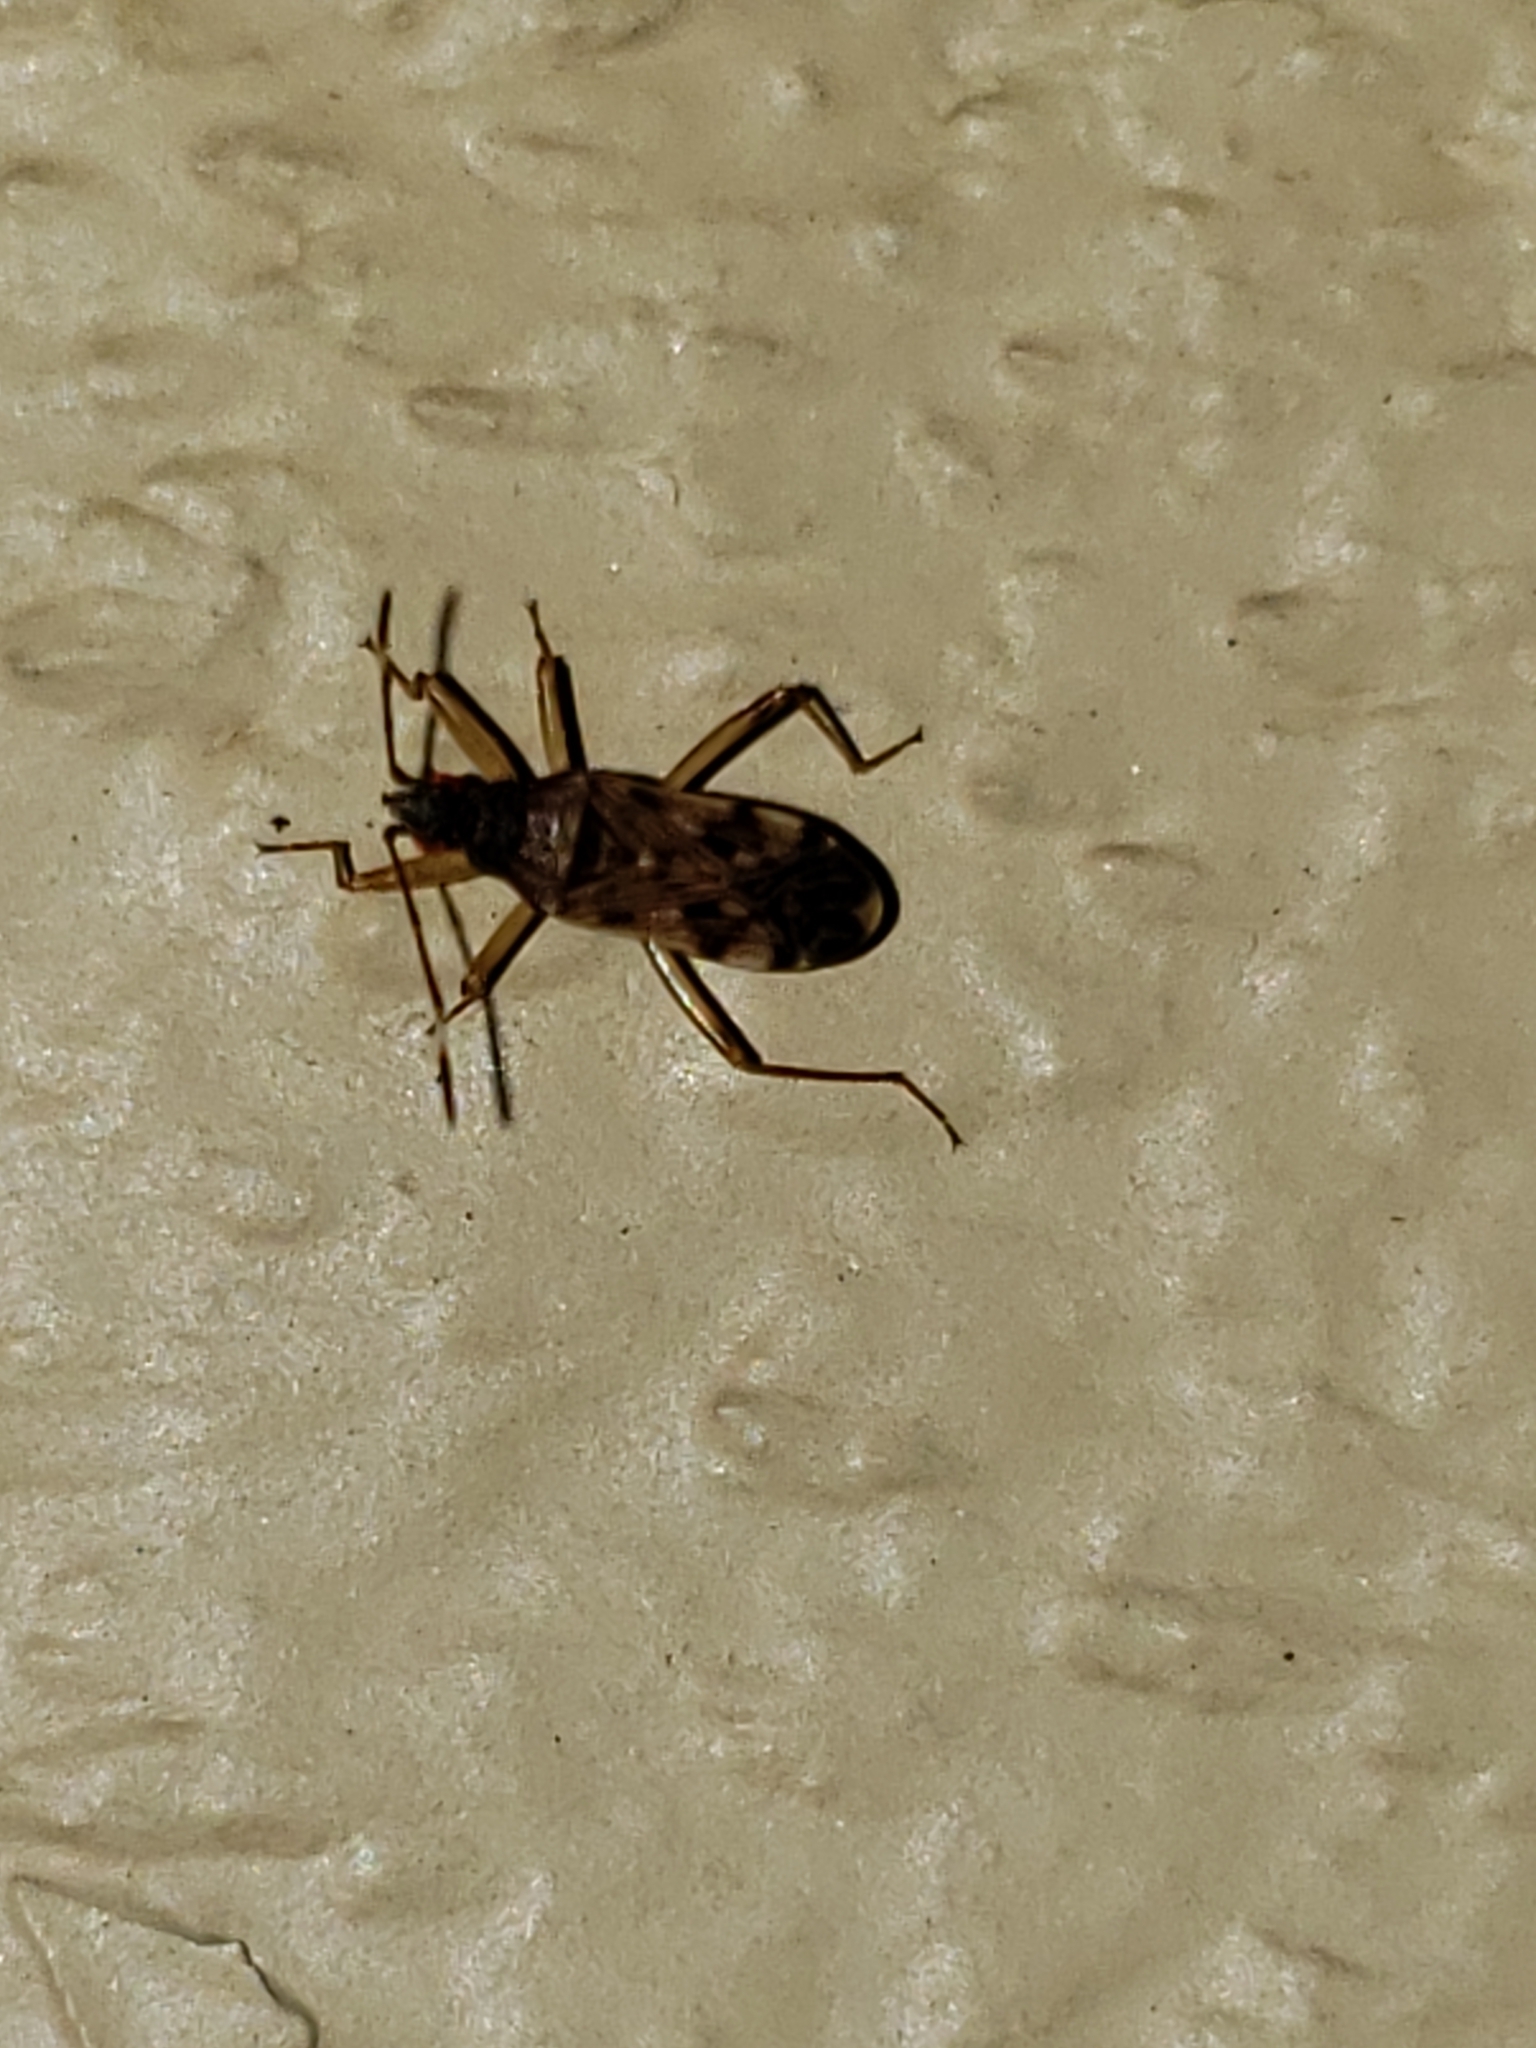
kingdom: Animalia
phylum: Arthropoda
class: Insecta
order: Hemiptera
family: Rhyparochromidae
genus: Ozophora
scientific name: Ozophora picturata
